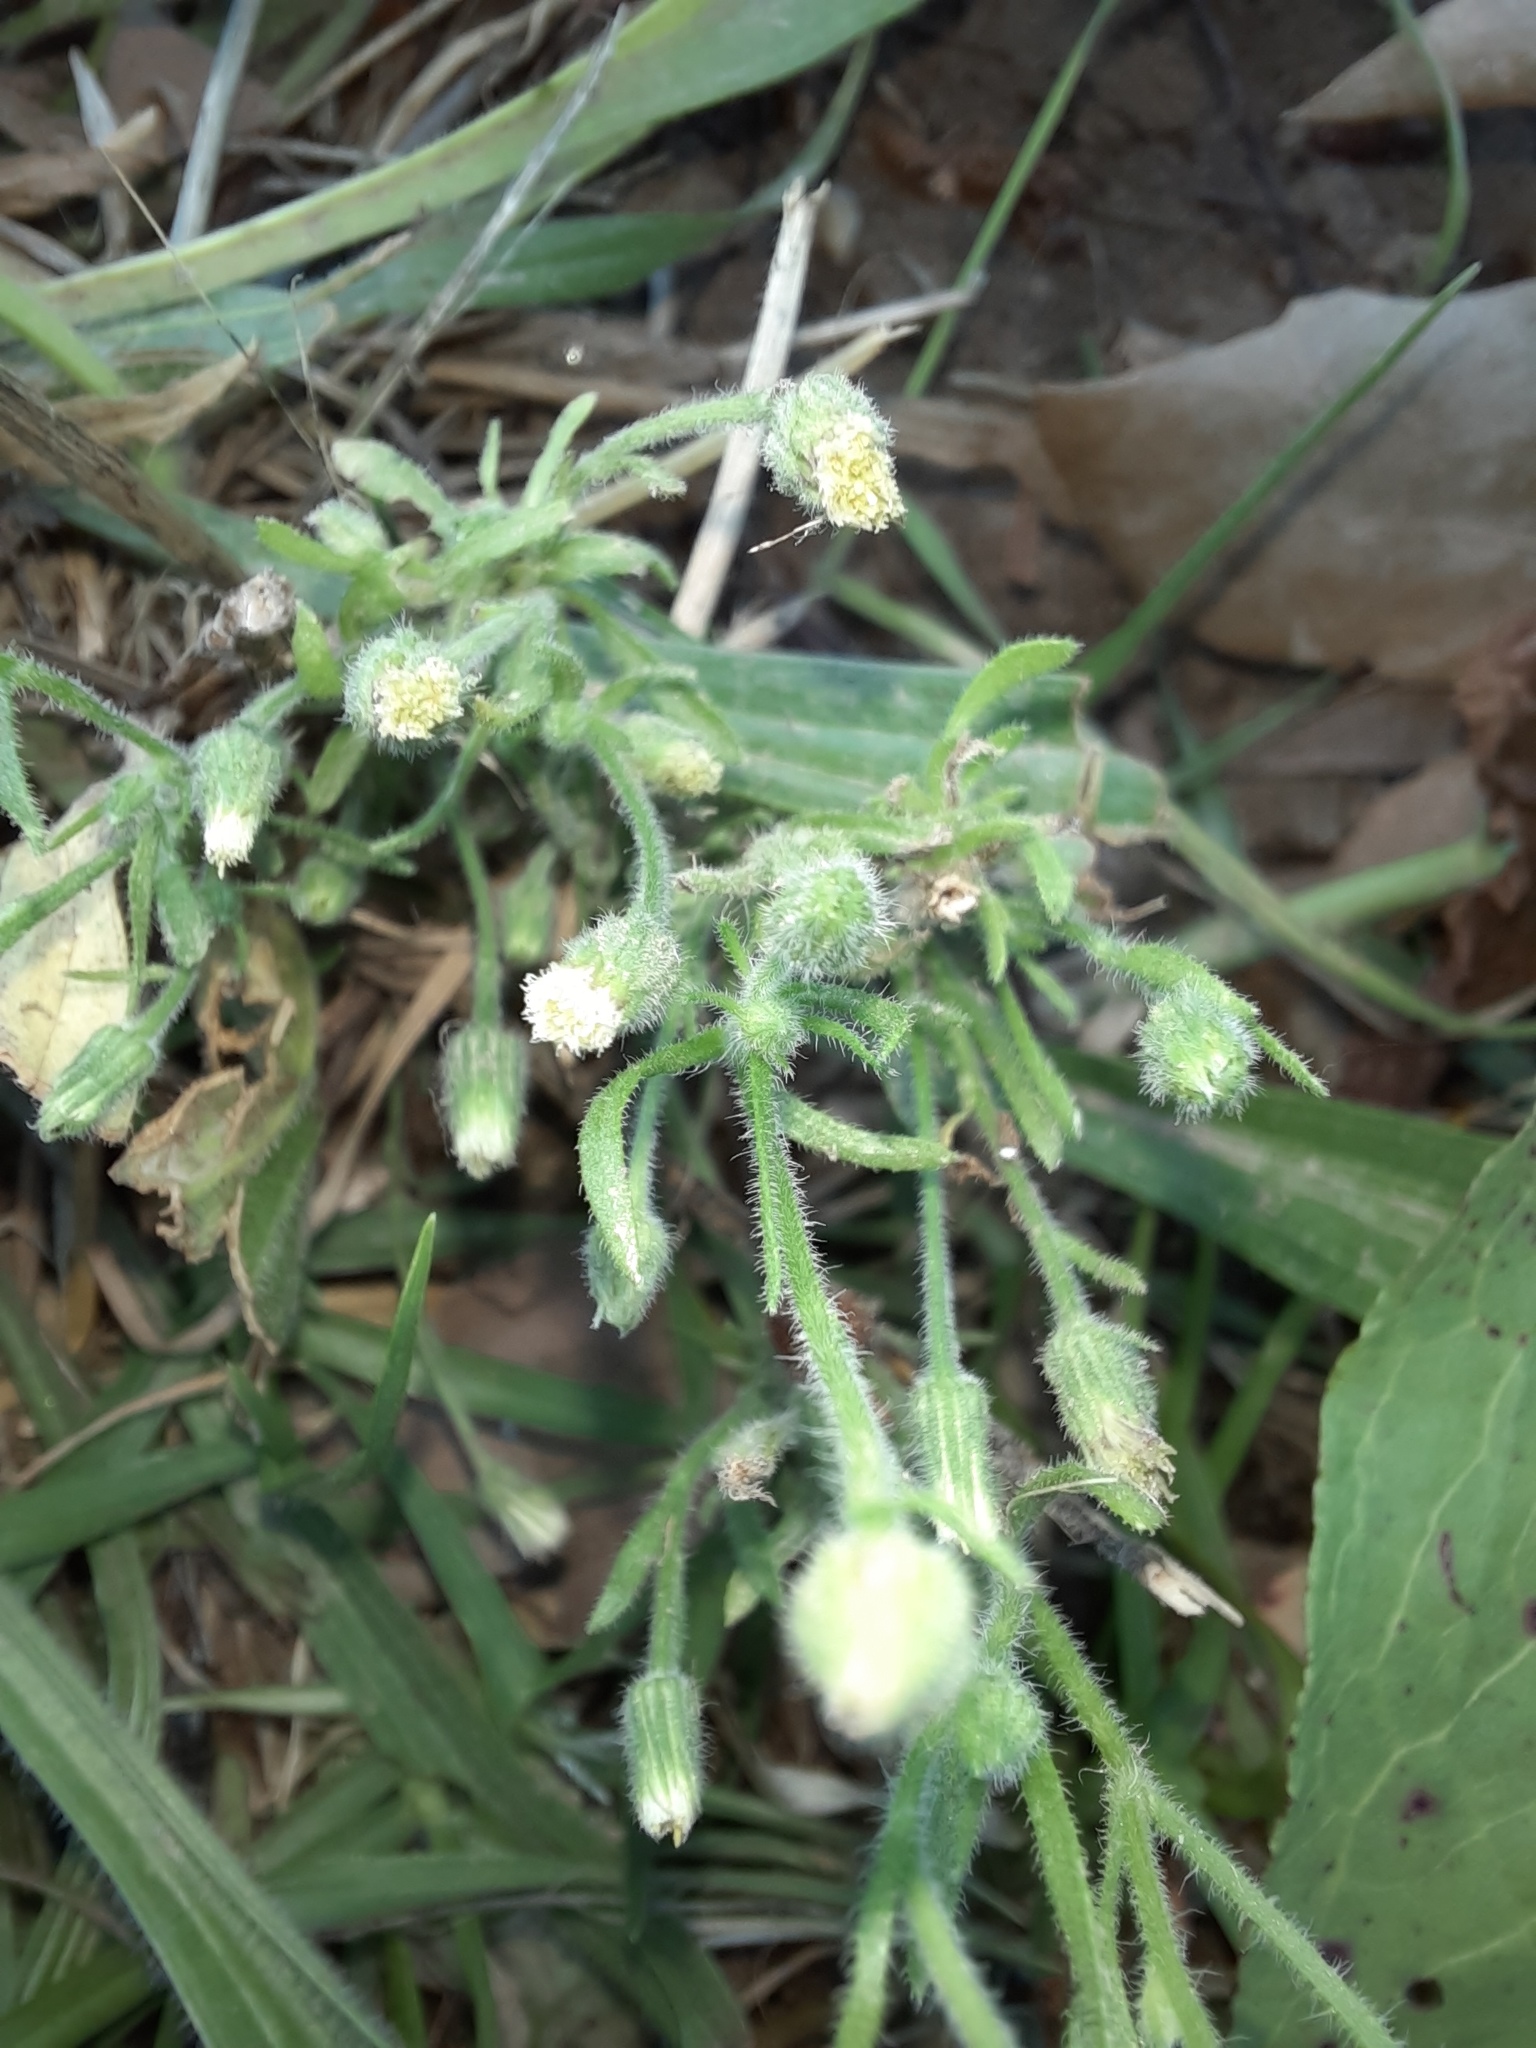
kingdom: Plantae
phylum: Tracheophyta
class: Magnoliopsida
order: Asterales
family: Asteraceae
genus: Erigeron
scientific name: Erigeron canadensis
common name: Canadian fleabane
